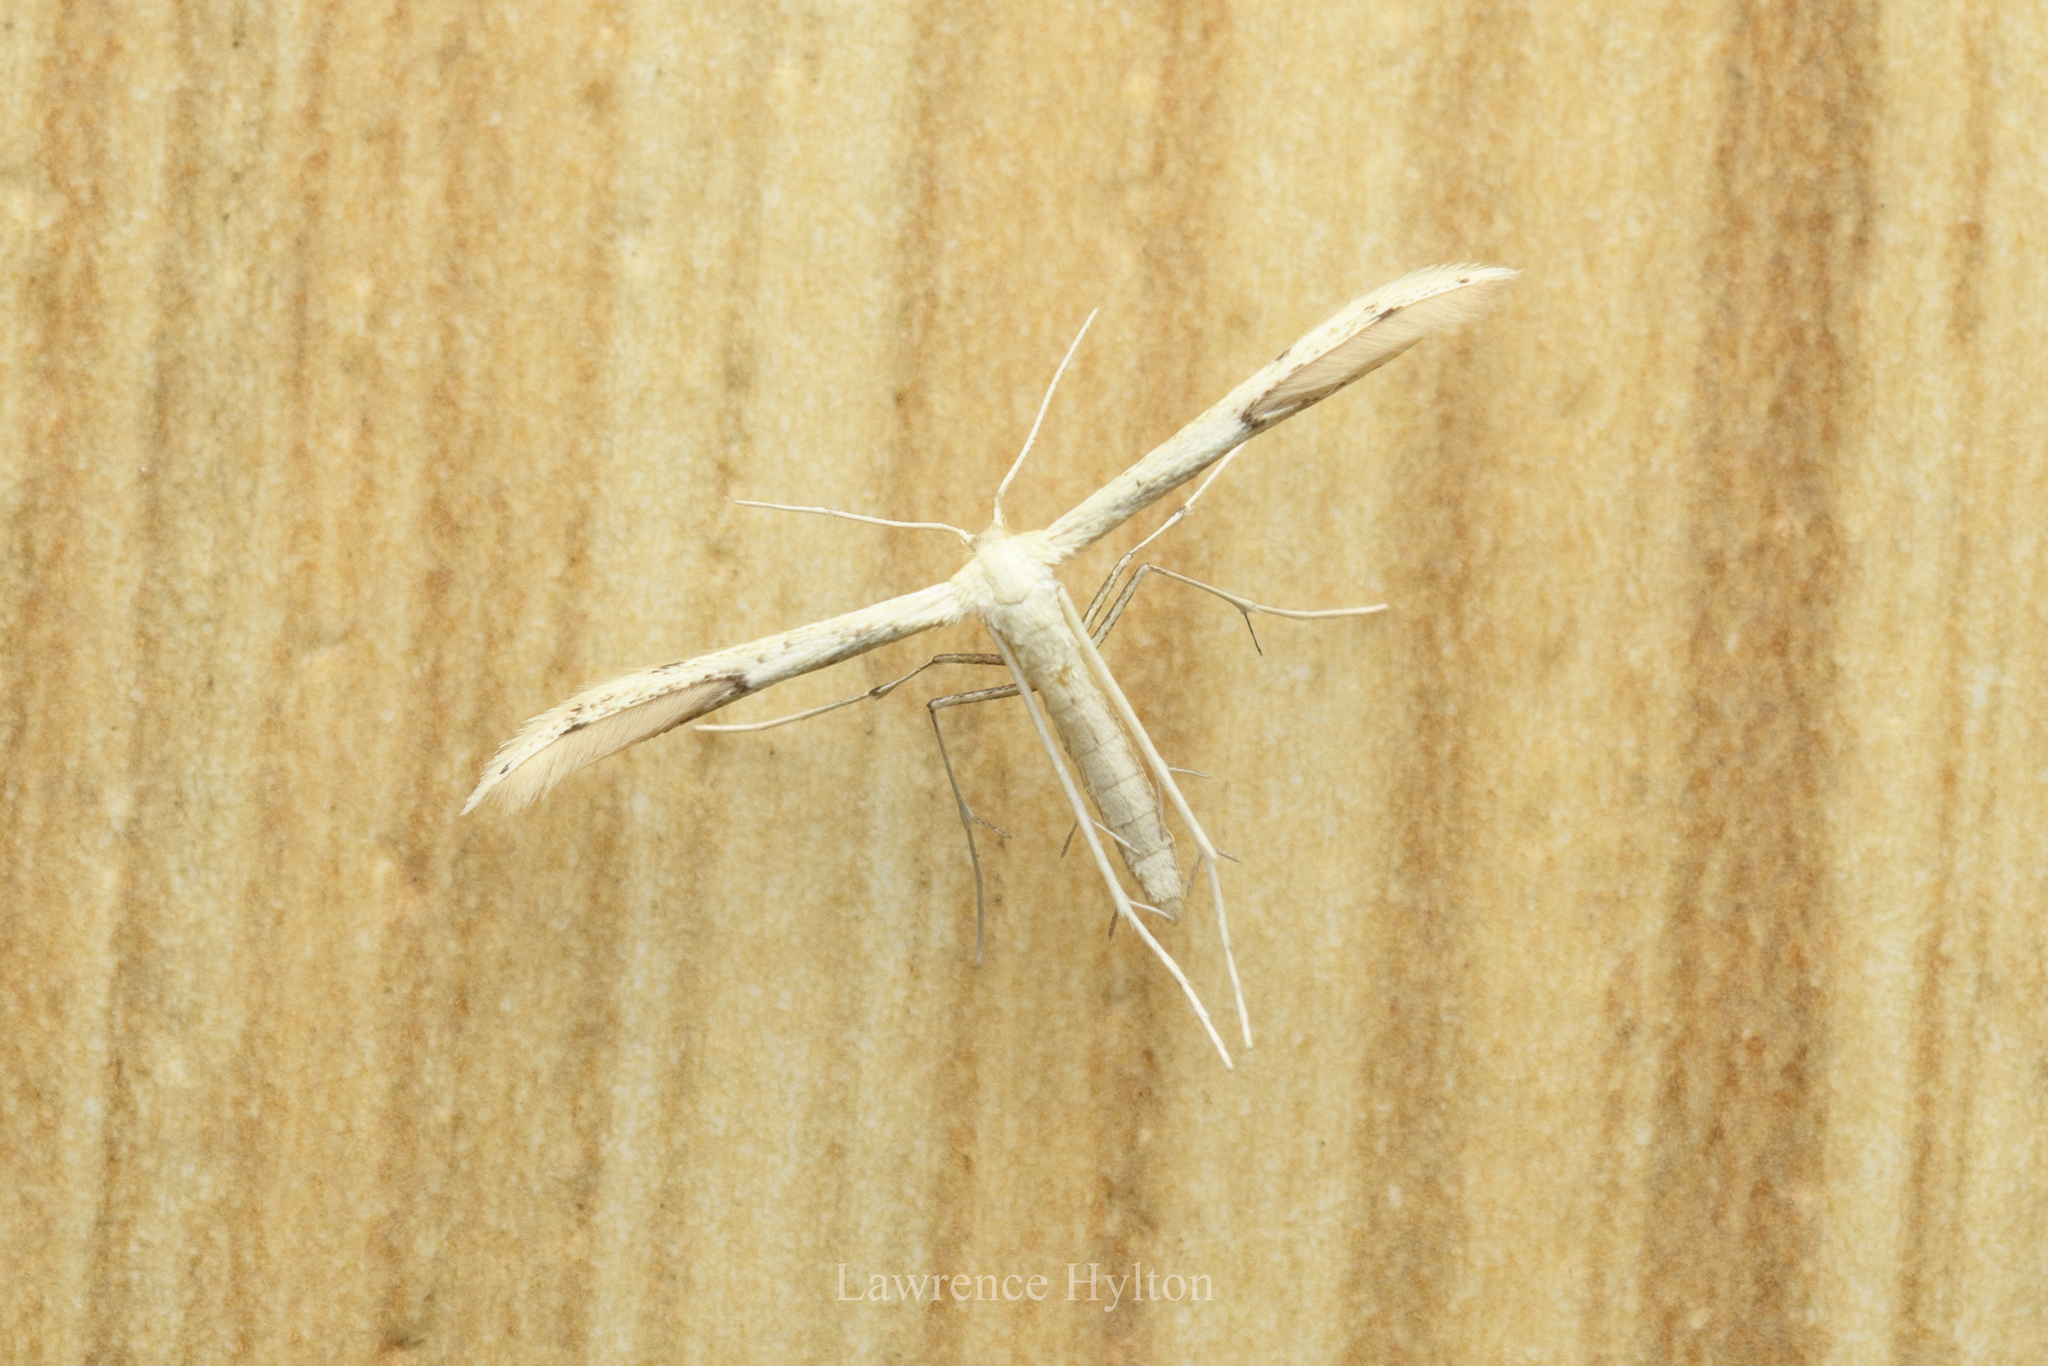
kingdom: Animalia
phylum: Arthropoda
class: Insecta
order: Lepidoptera
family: Pterophoridae
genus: Adaina
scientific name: Adaina microdactyla
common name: Hemp-agrimony plume
